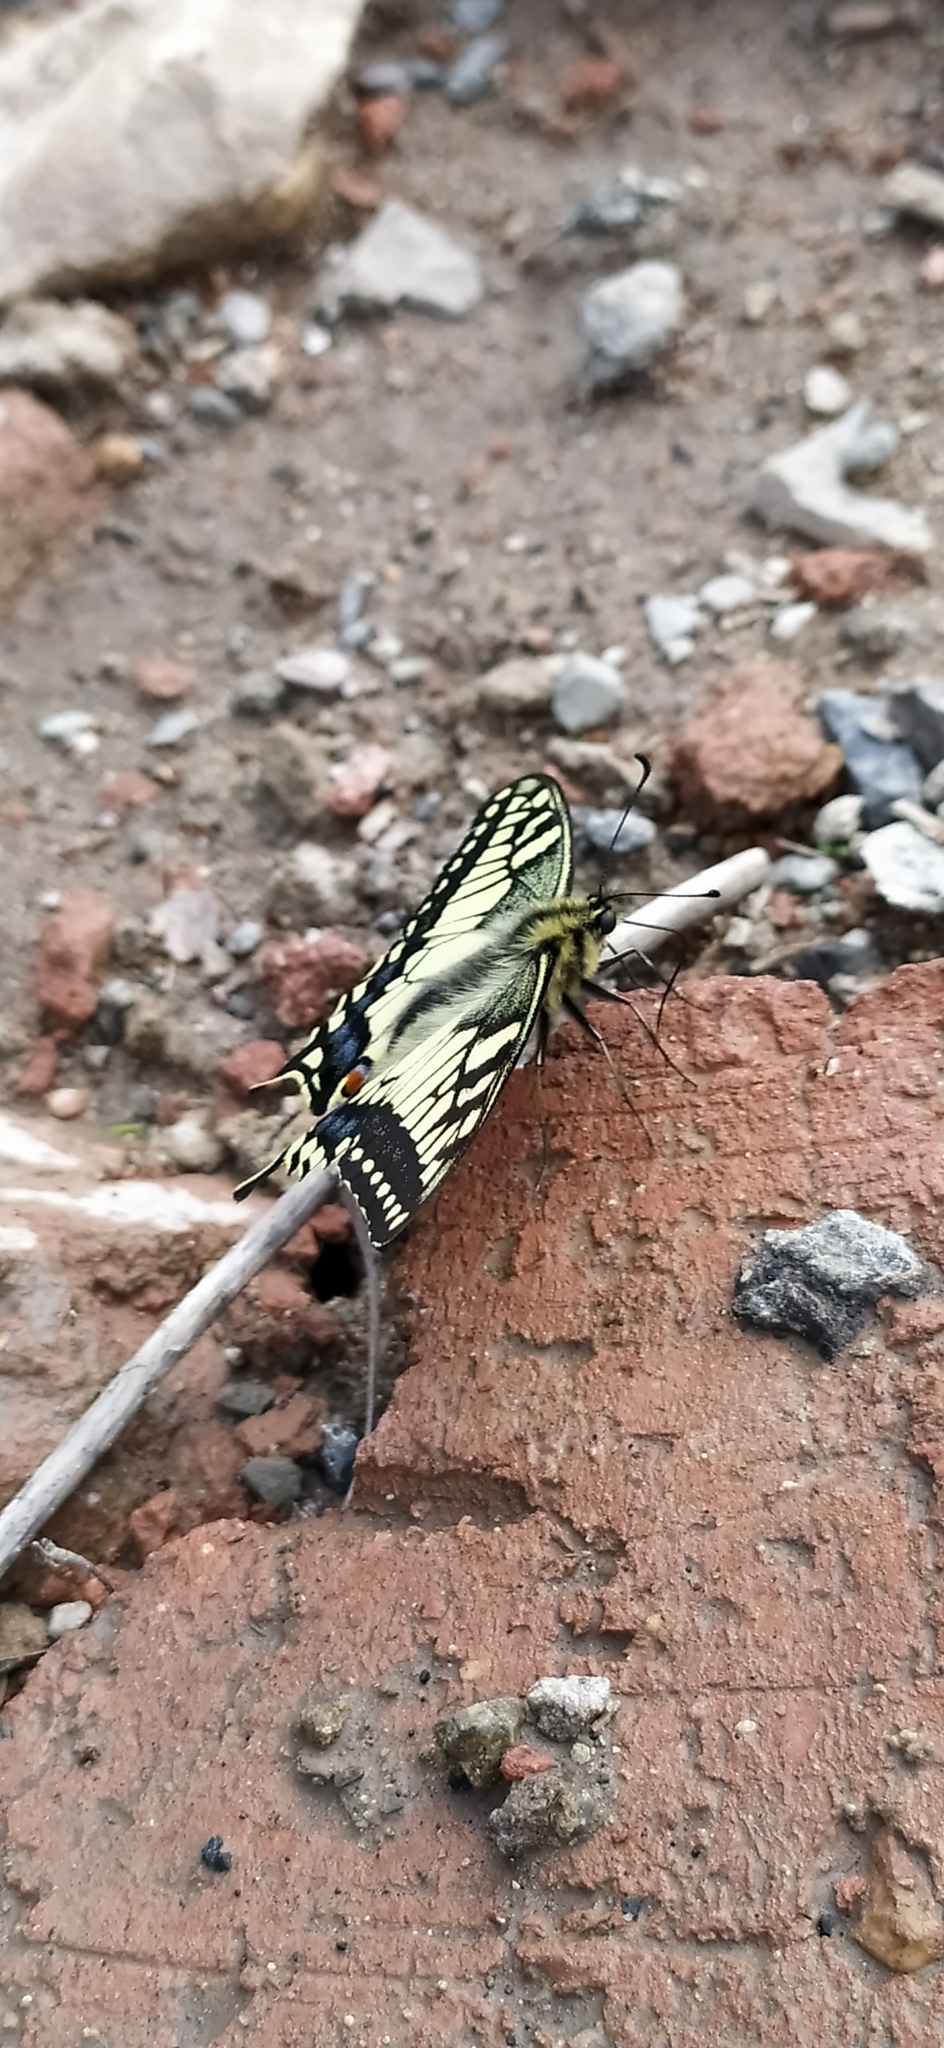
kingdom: Animalia
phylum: Arthropoda
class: Insecta
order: Lepidoptera
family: Papilionidae
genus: Papilio
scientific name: Papilio machaon
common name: Swallowtail
